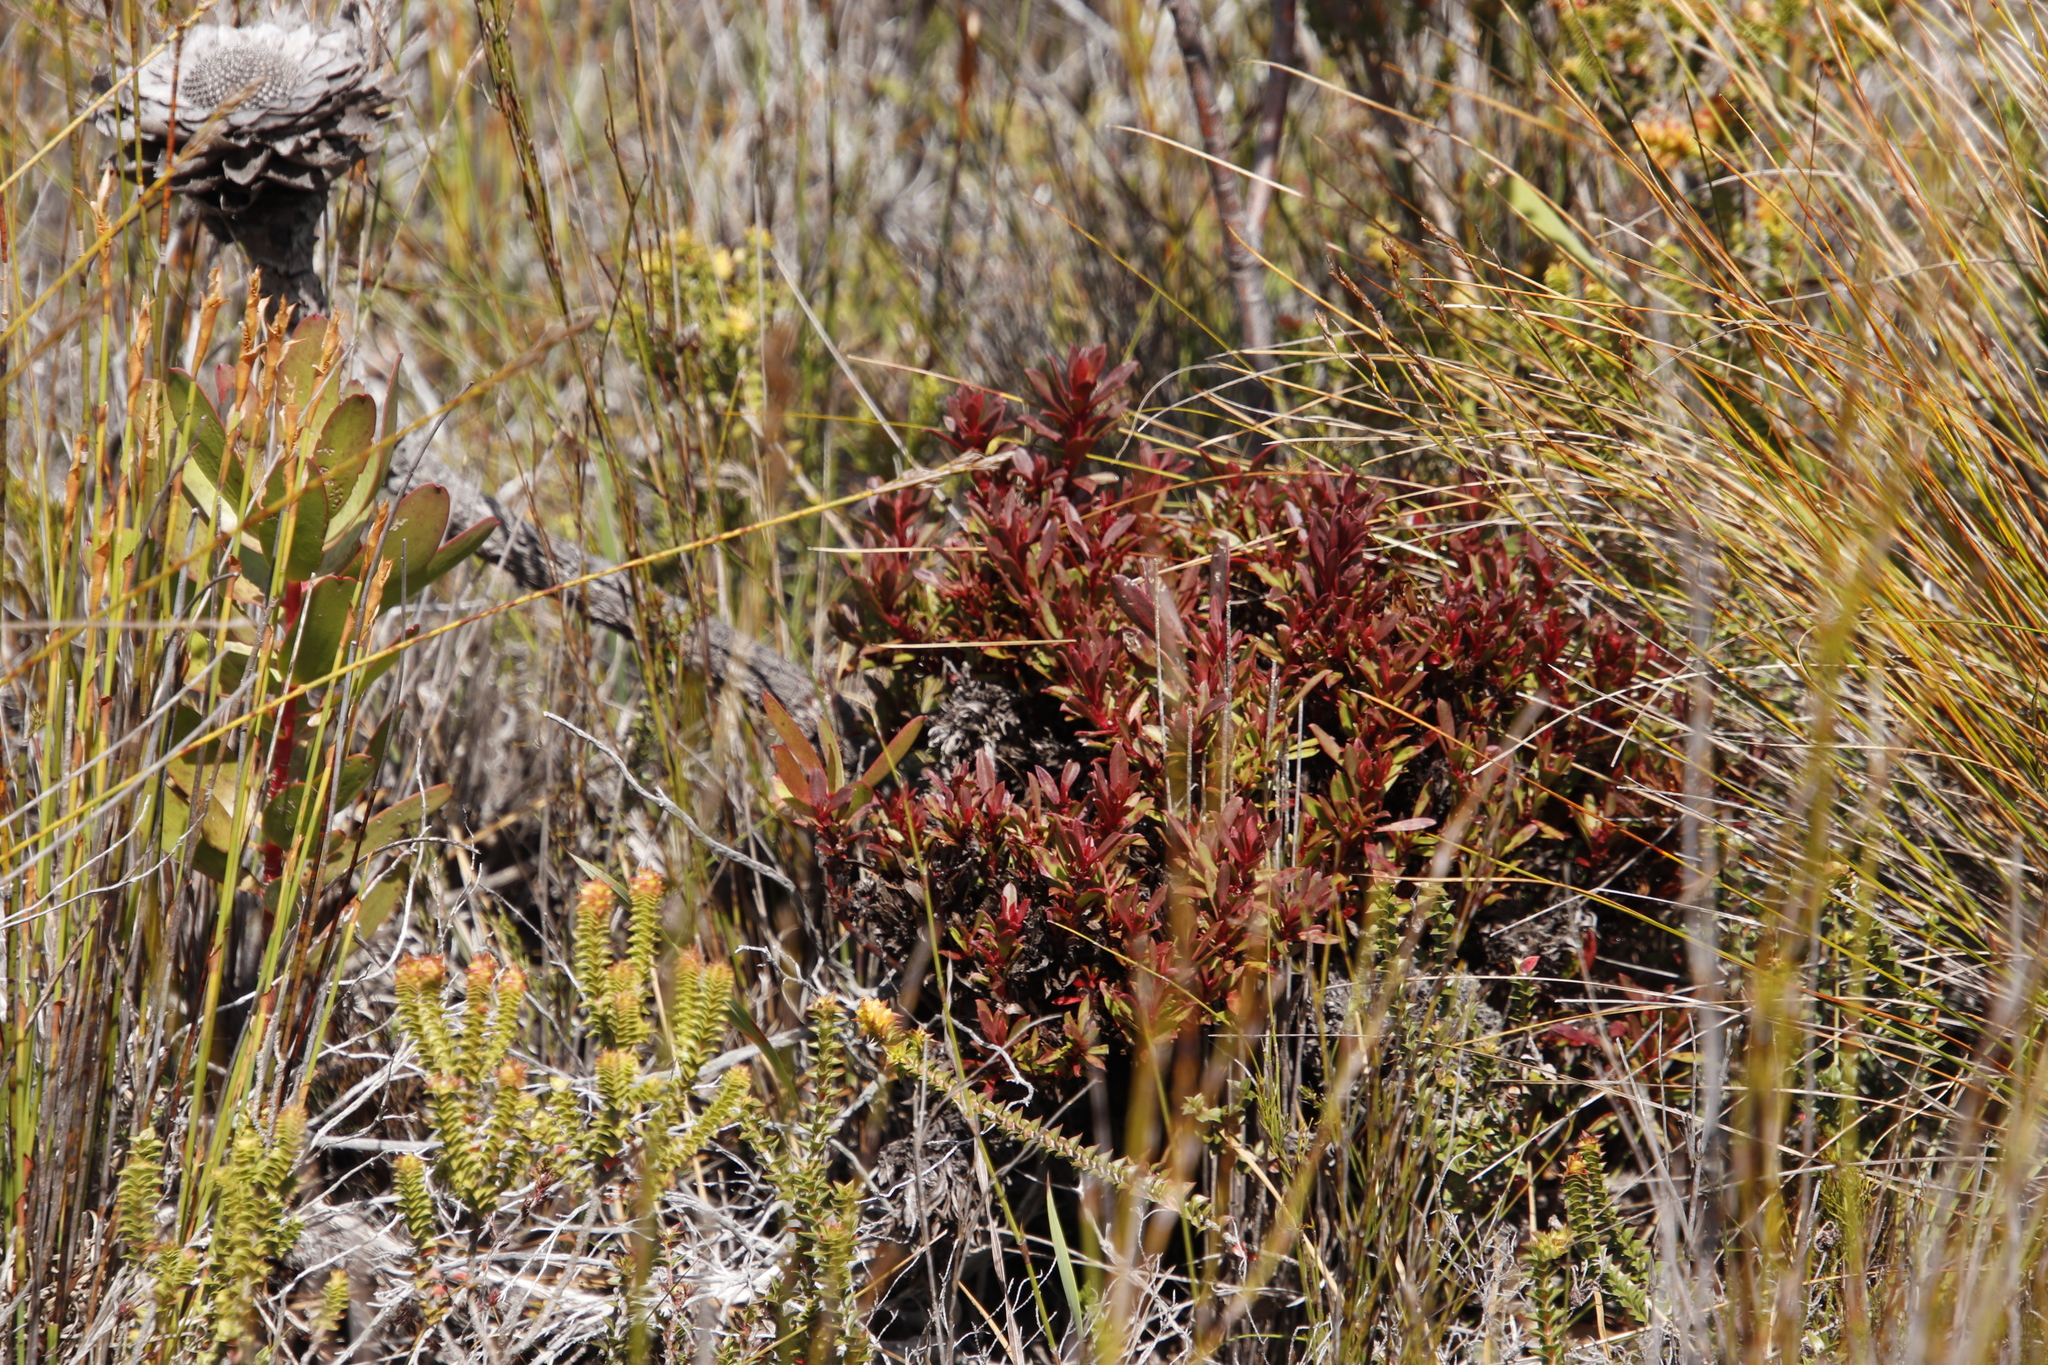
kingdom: Bacteria
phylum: Firmicutes
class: Bacilli
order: Acholeplasmatales
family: Acholeplasmataceae
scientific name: Acholeplasmataceae
